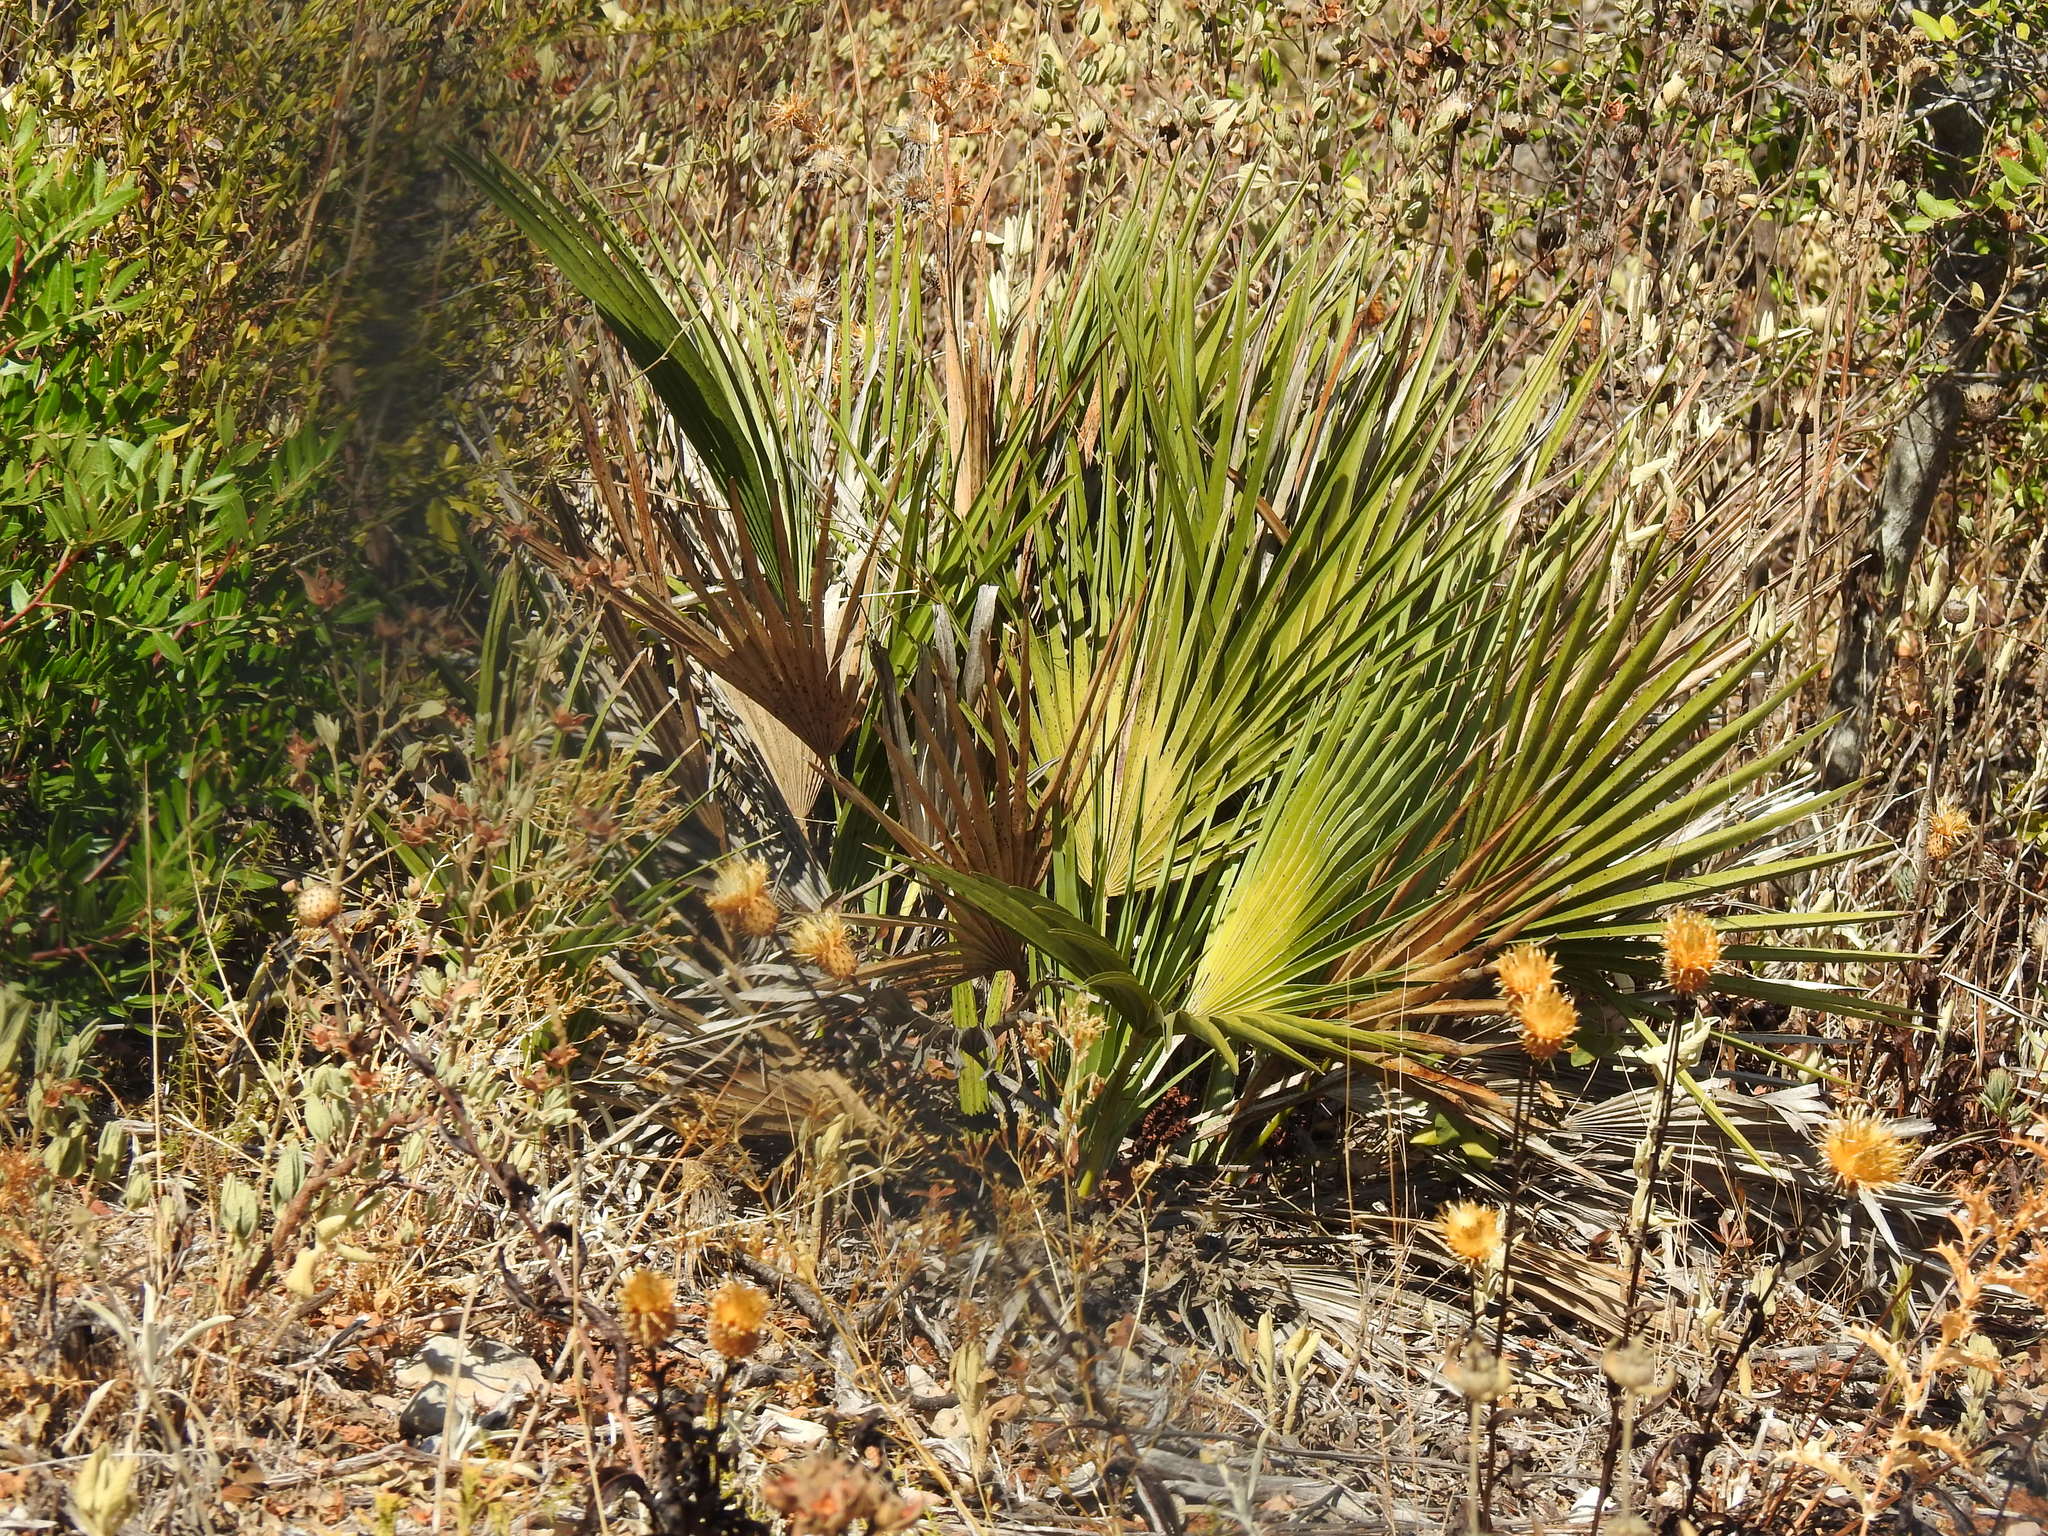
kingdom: Plantae
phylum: Tracheophyta
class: Liliopsida
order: Arecales
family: Arecaceae
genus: Chamaerops
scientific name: Chamaerops humilis
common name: Dwarf fan palm
